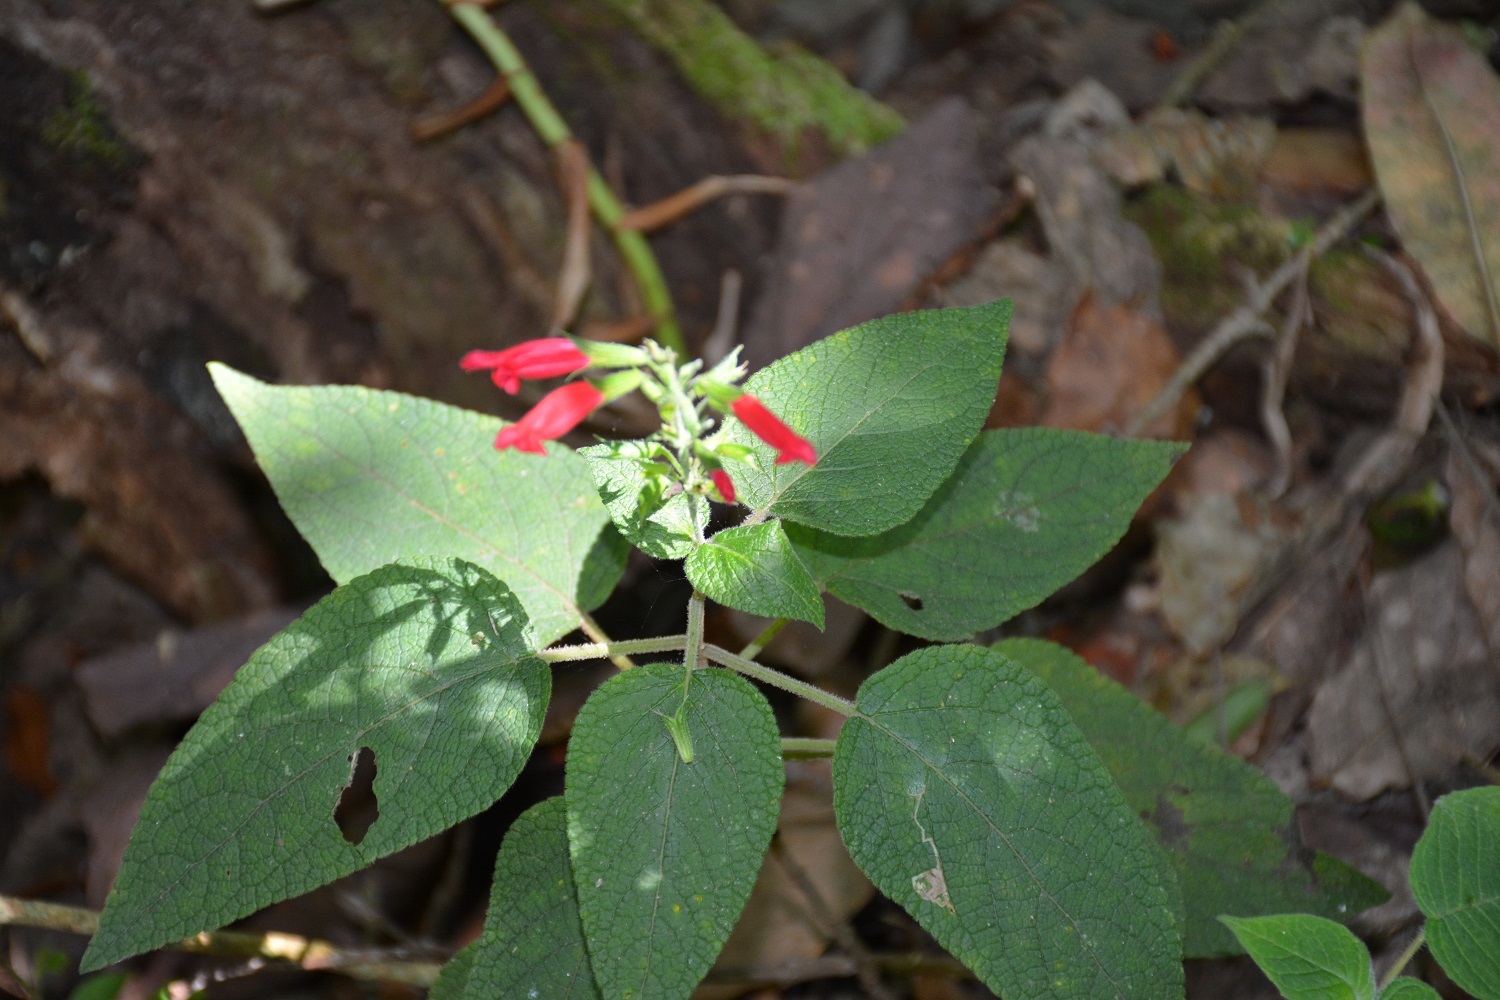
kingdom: Plantae
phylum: Tracheophyta
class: Magnoliopsida
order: Lamiales
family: Lamiaceae
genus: Salvia
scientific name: Salvia karwinskii
